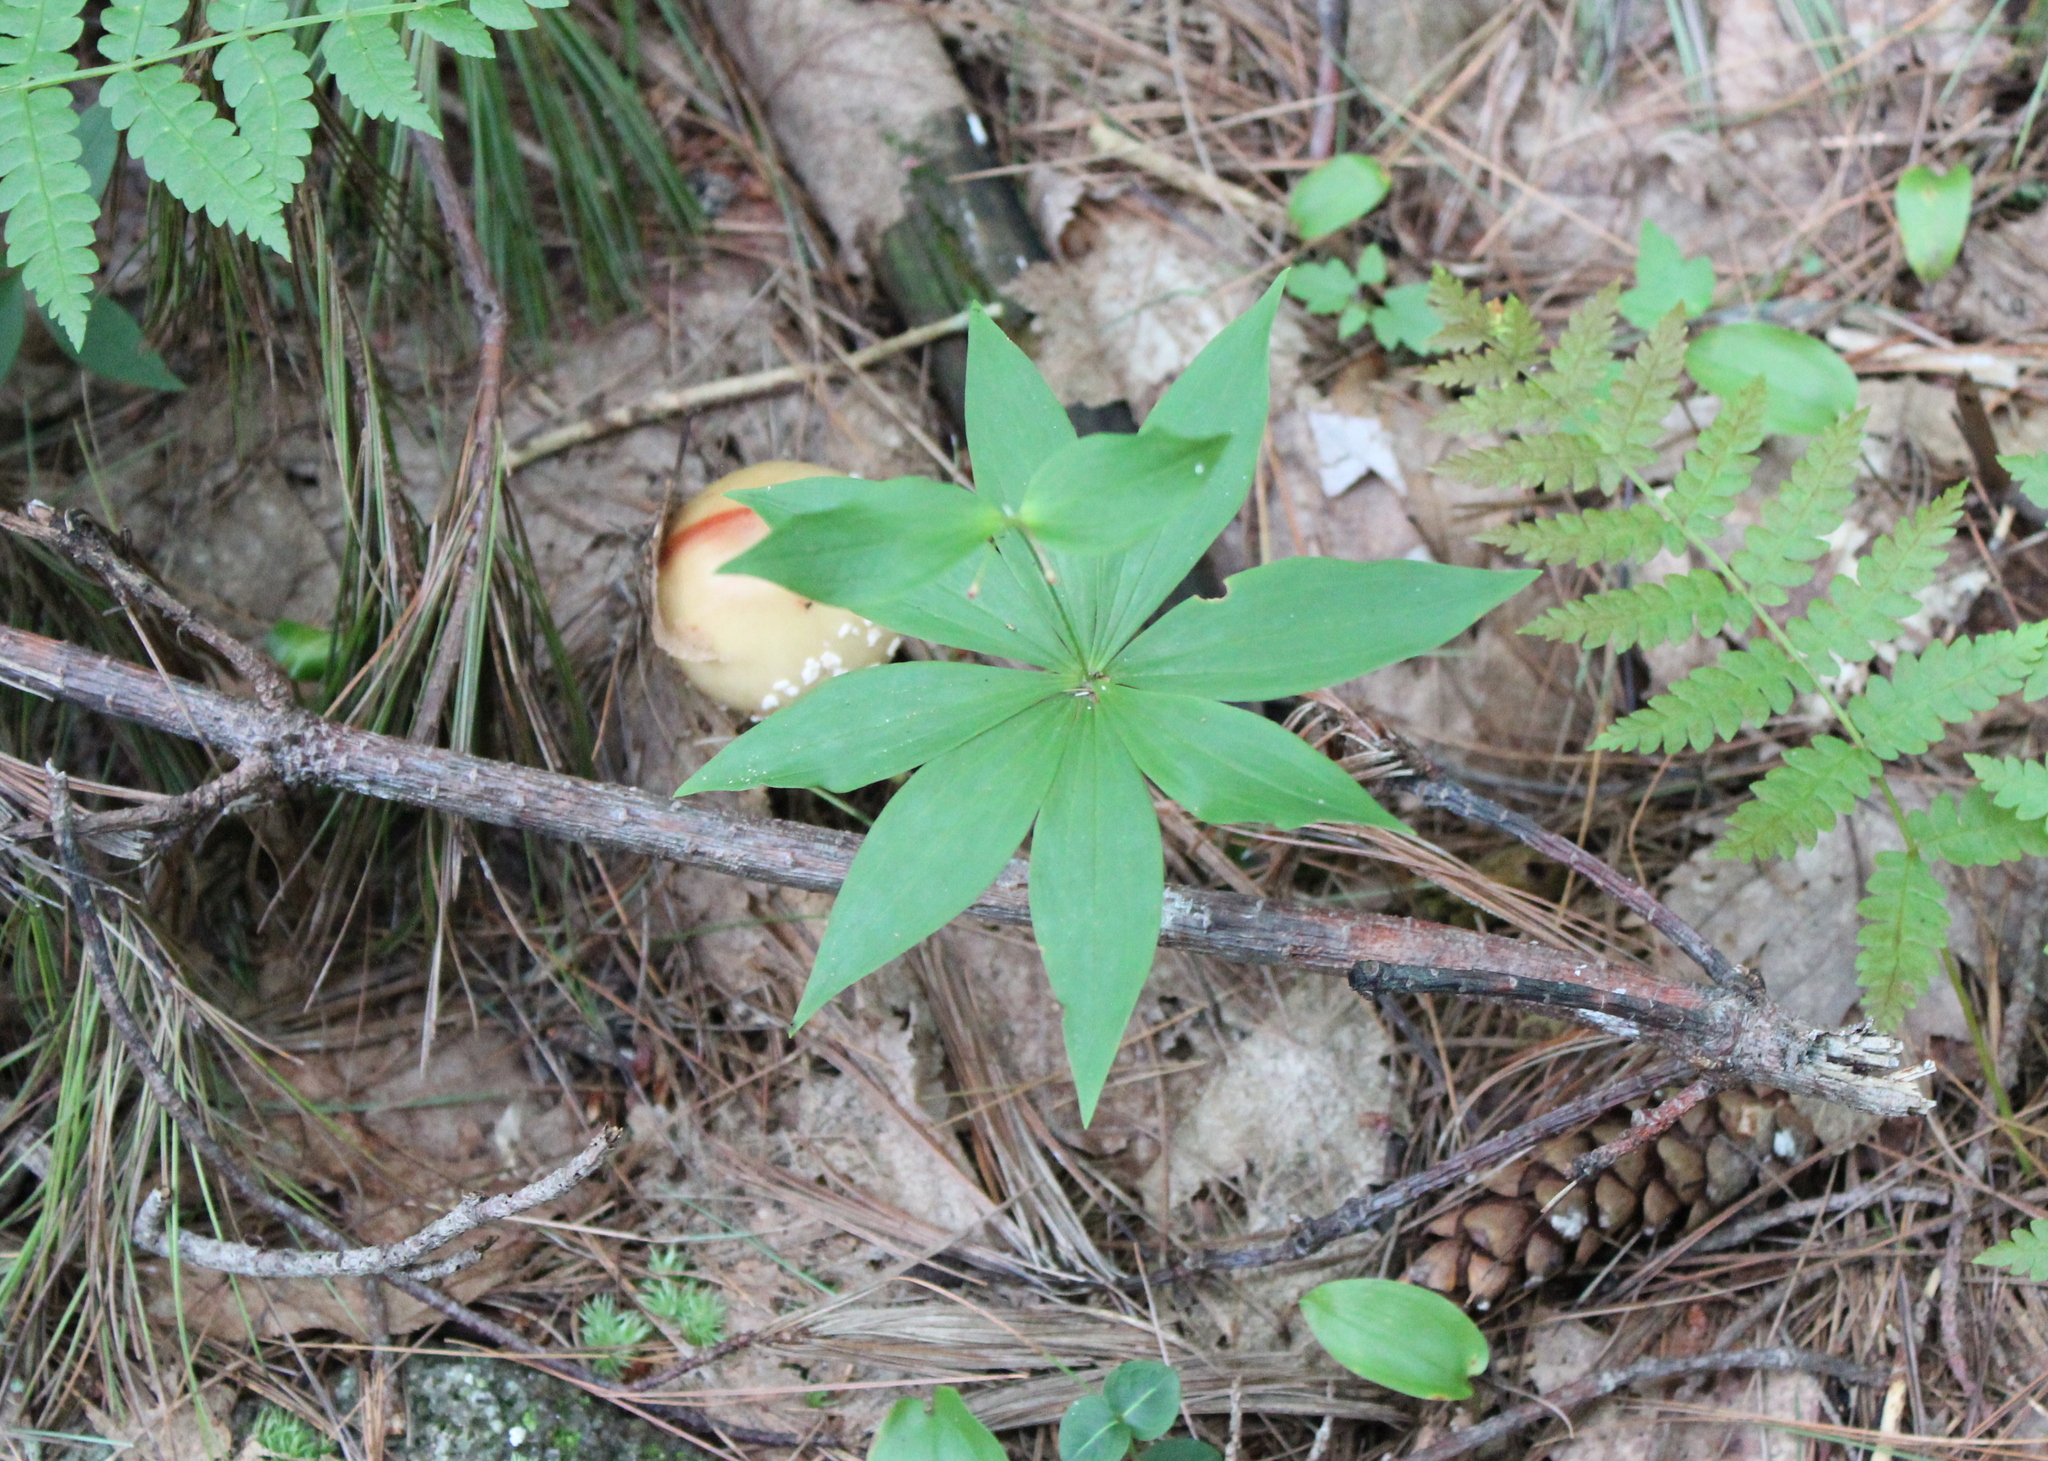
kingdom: Plantae
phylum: Tracheophyta
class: Liliopsida
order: Liliales
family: Liliaceae
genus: Medeola
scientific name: Medeola virginiana
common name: Indian cucumber-root
